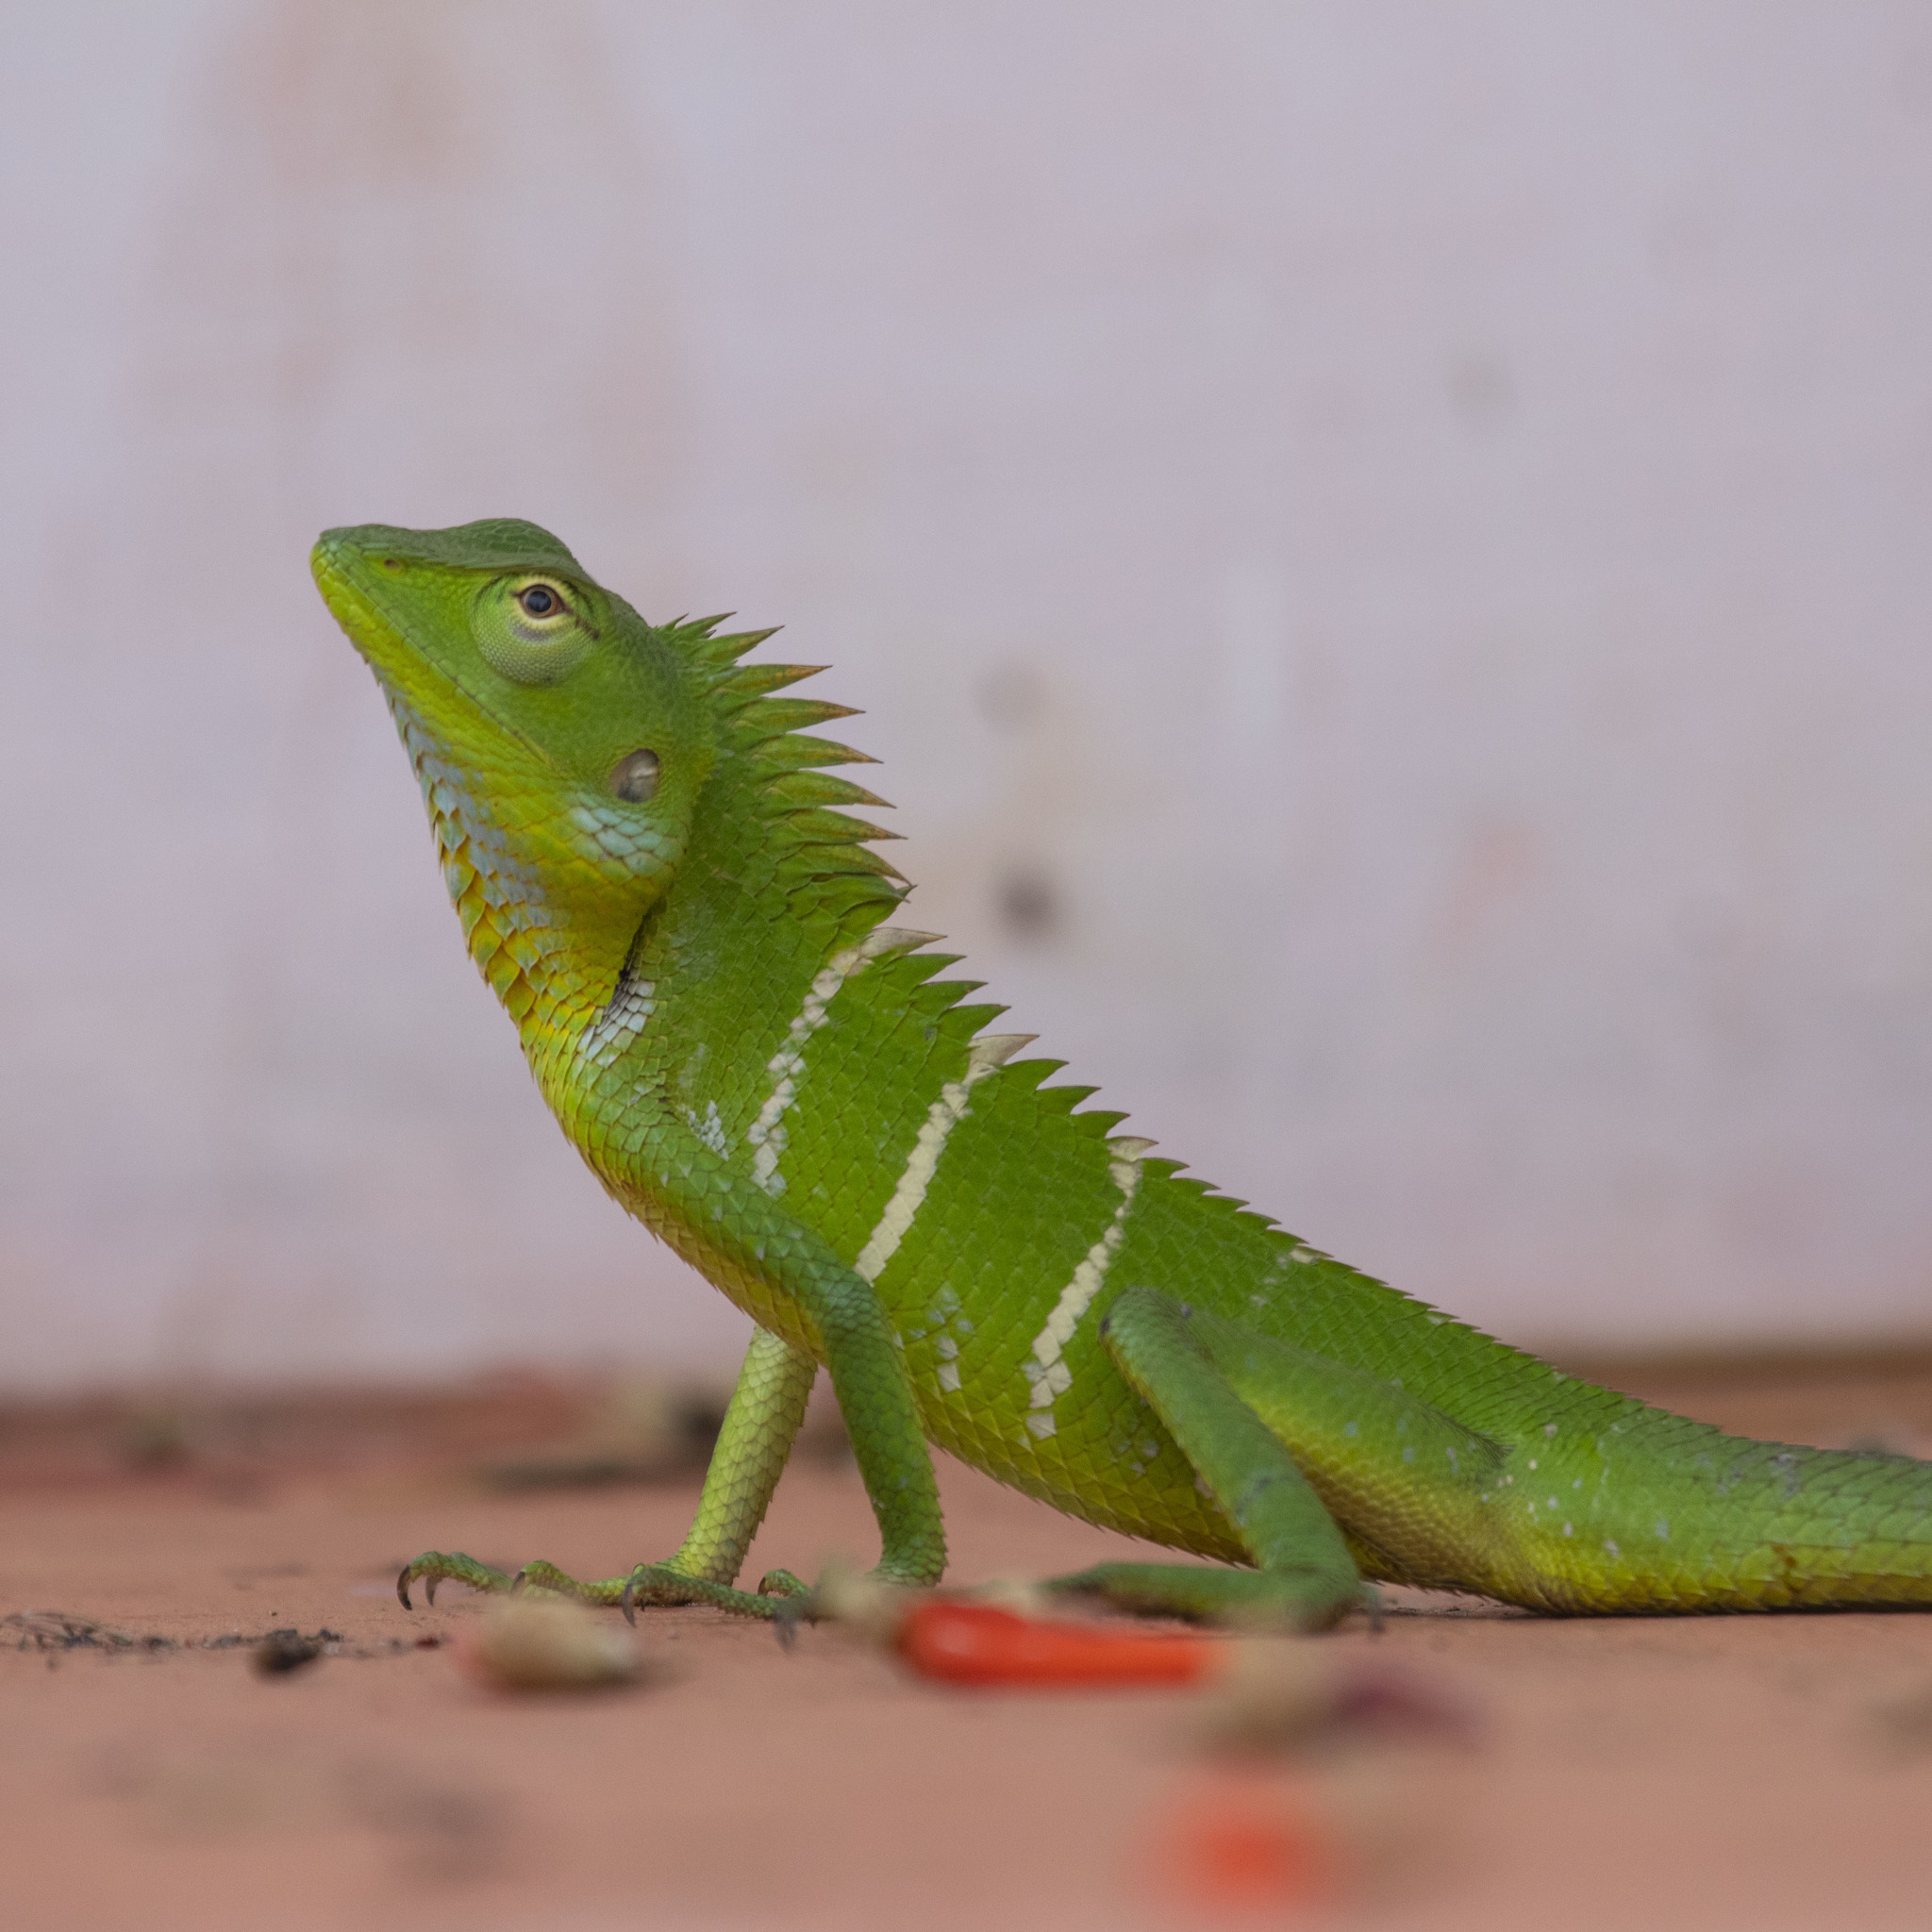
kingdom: Animalia
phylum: Chordata
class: Squamata
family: Agamidae
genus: Calotes
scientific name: Calotes calotes
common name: Common green forest lizard
